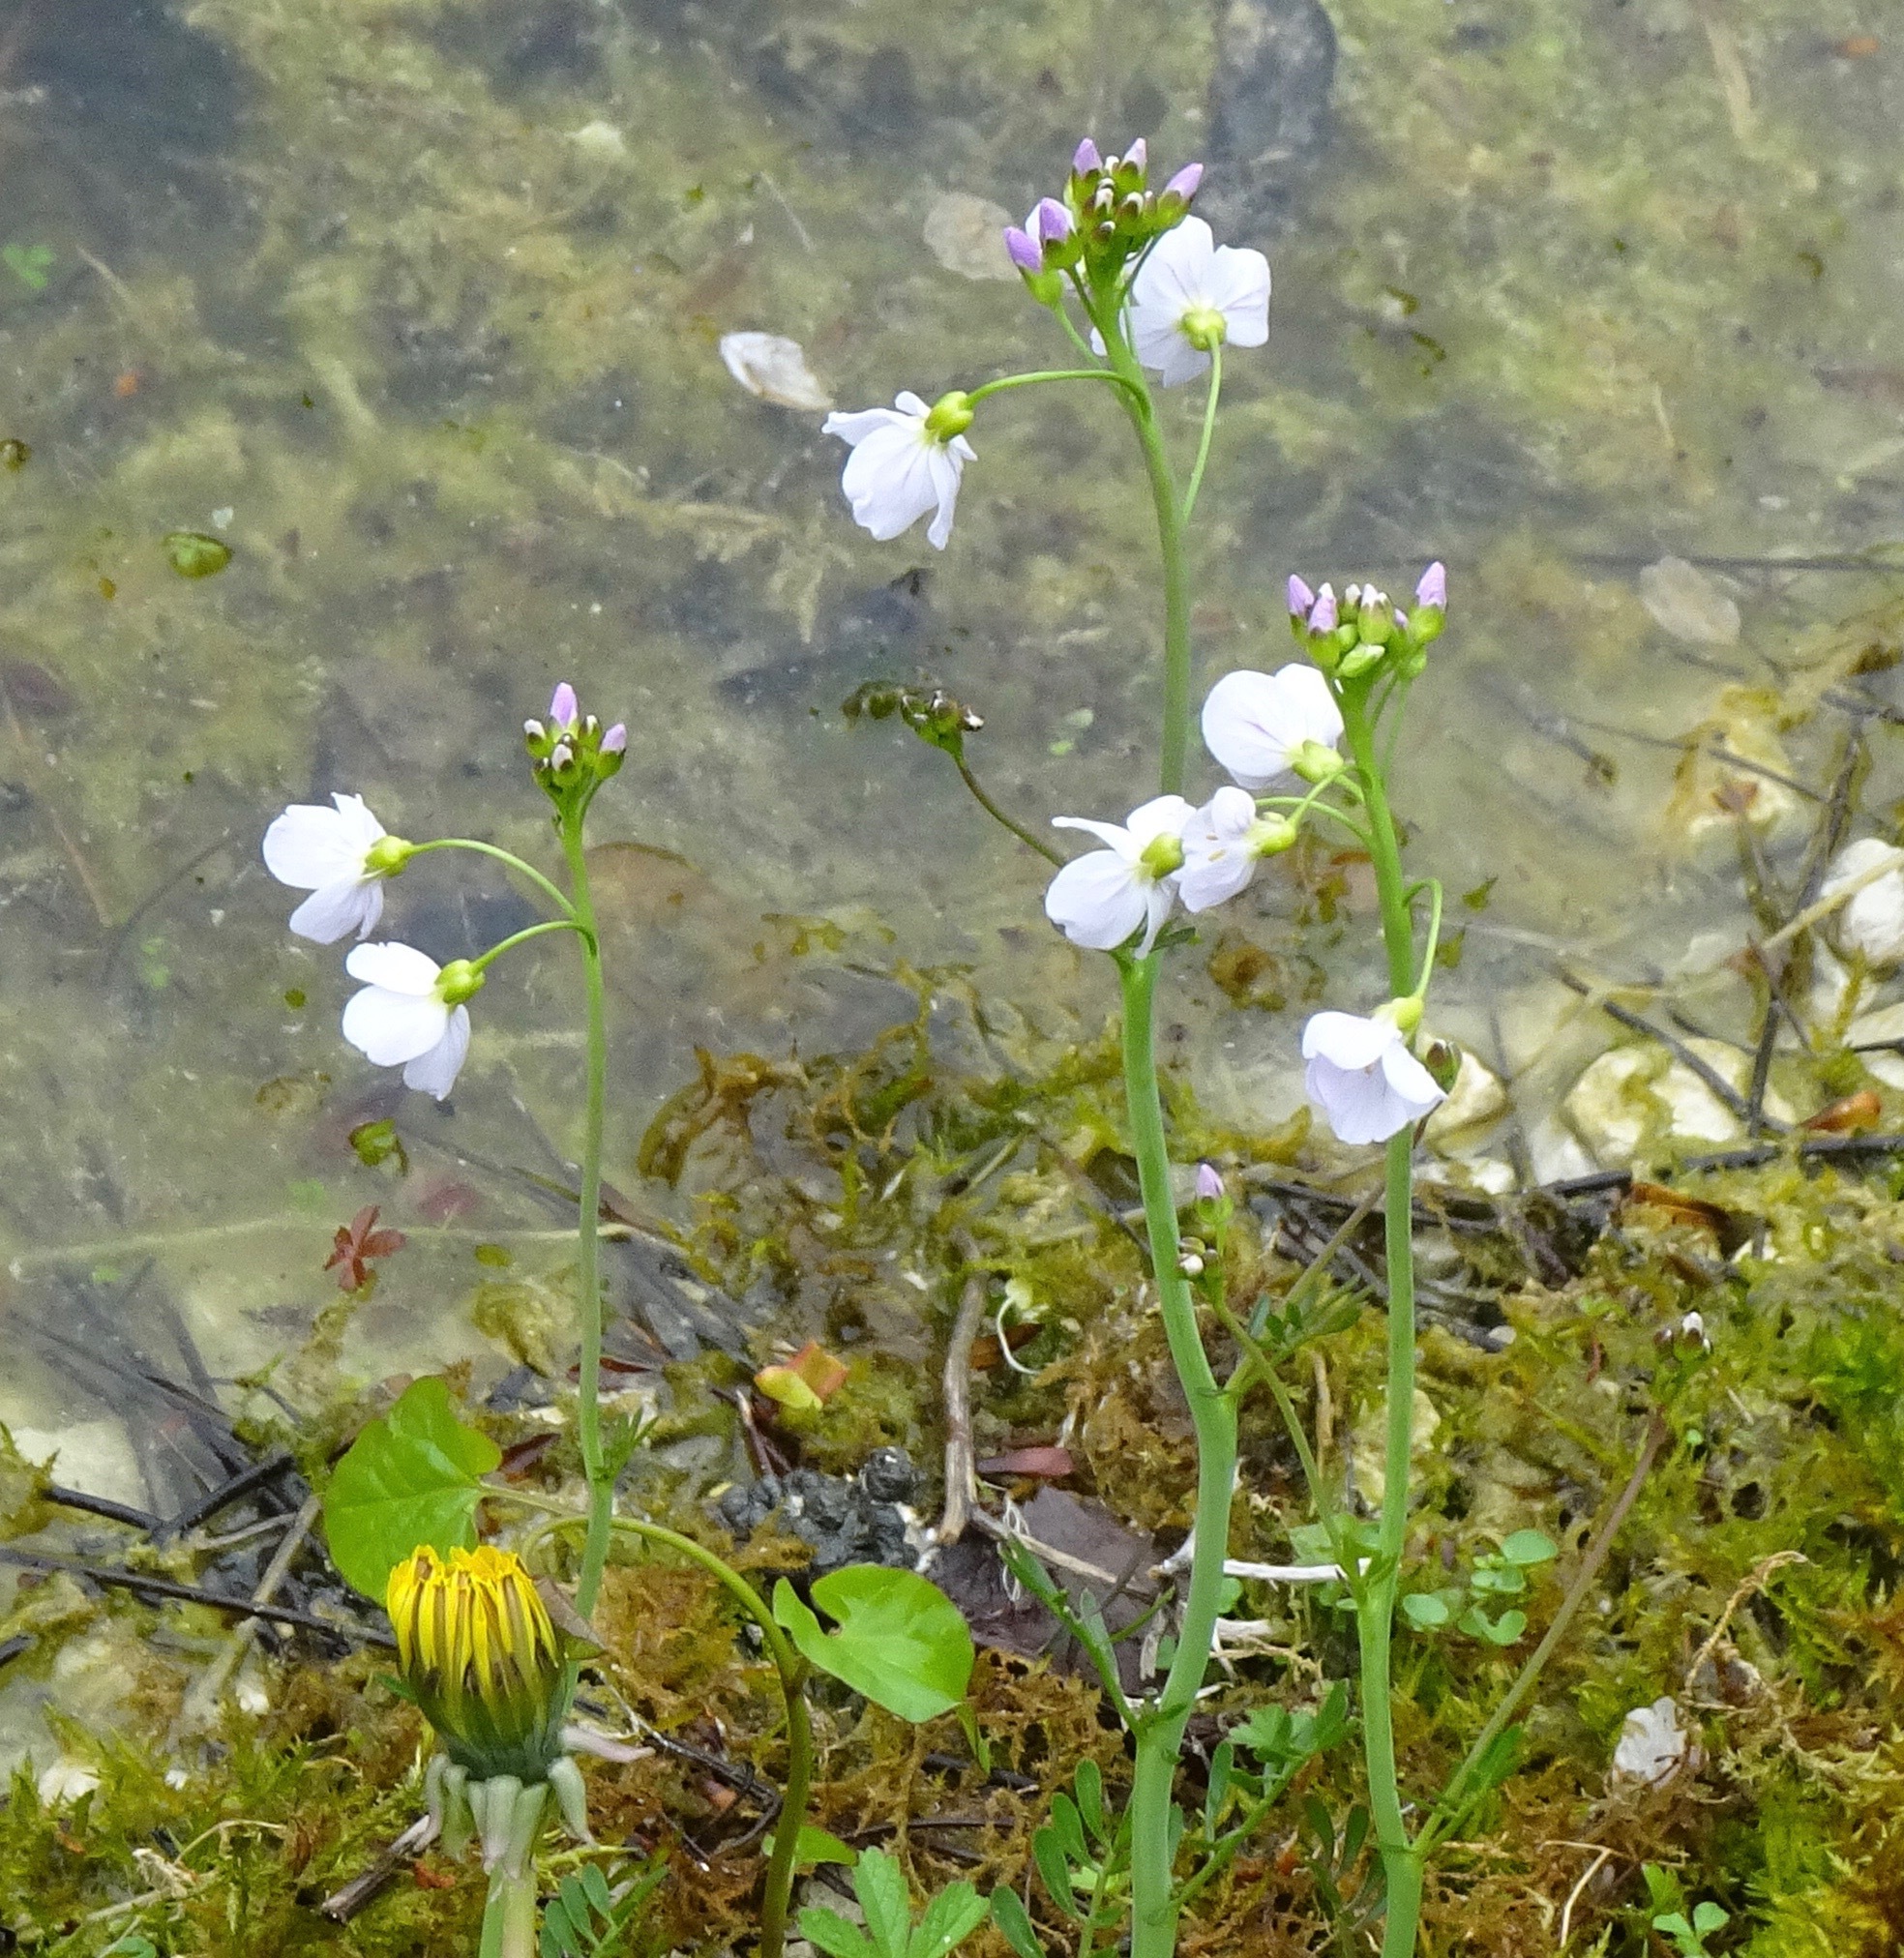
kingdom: Plantae
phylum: Tracheophyta
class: Magnoliopsida
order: Brassicales
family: Brassicaceae
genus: Cardamine
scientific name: Cardamine pratensis
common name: Cuckoo flower
